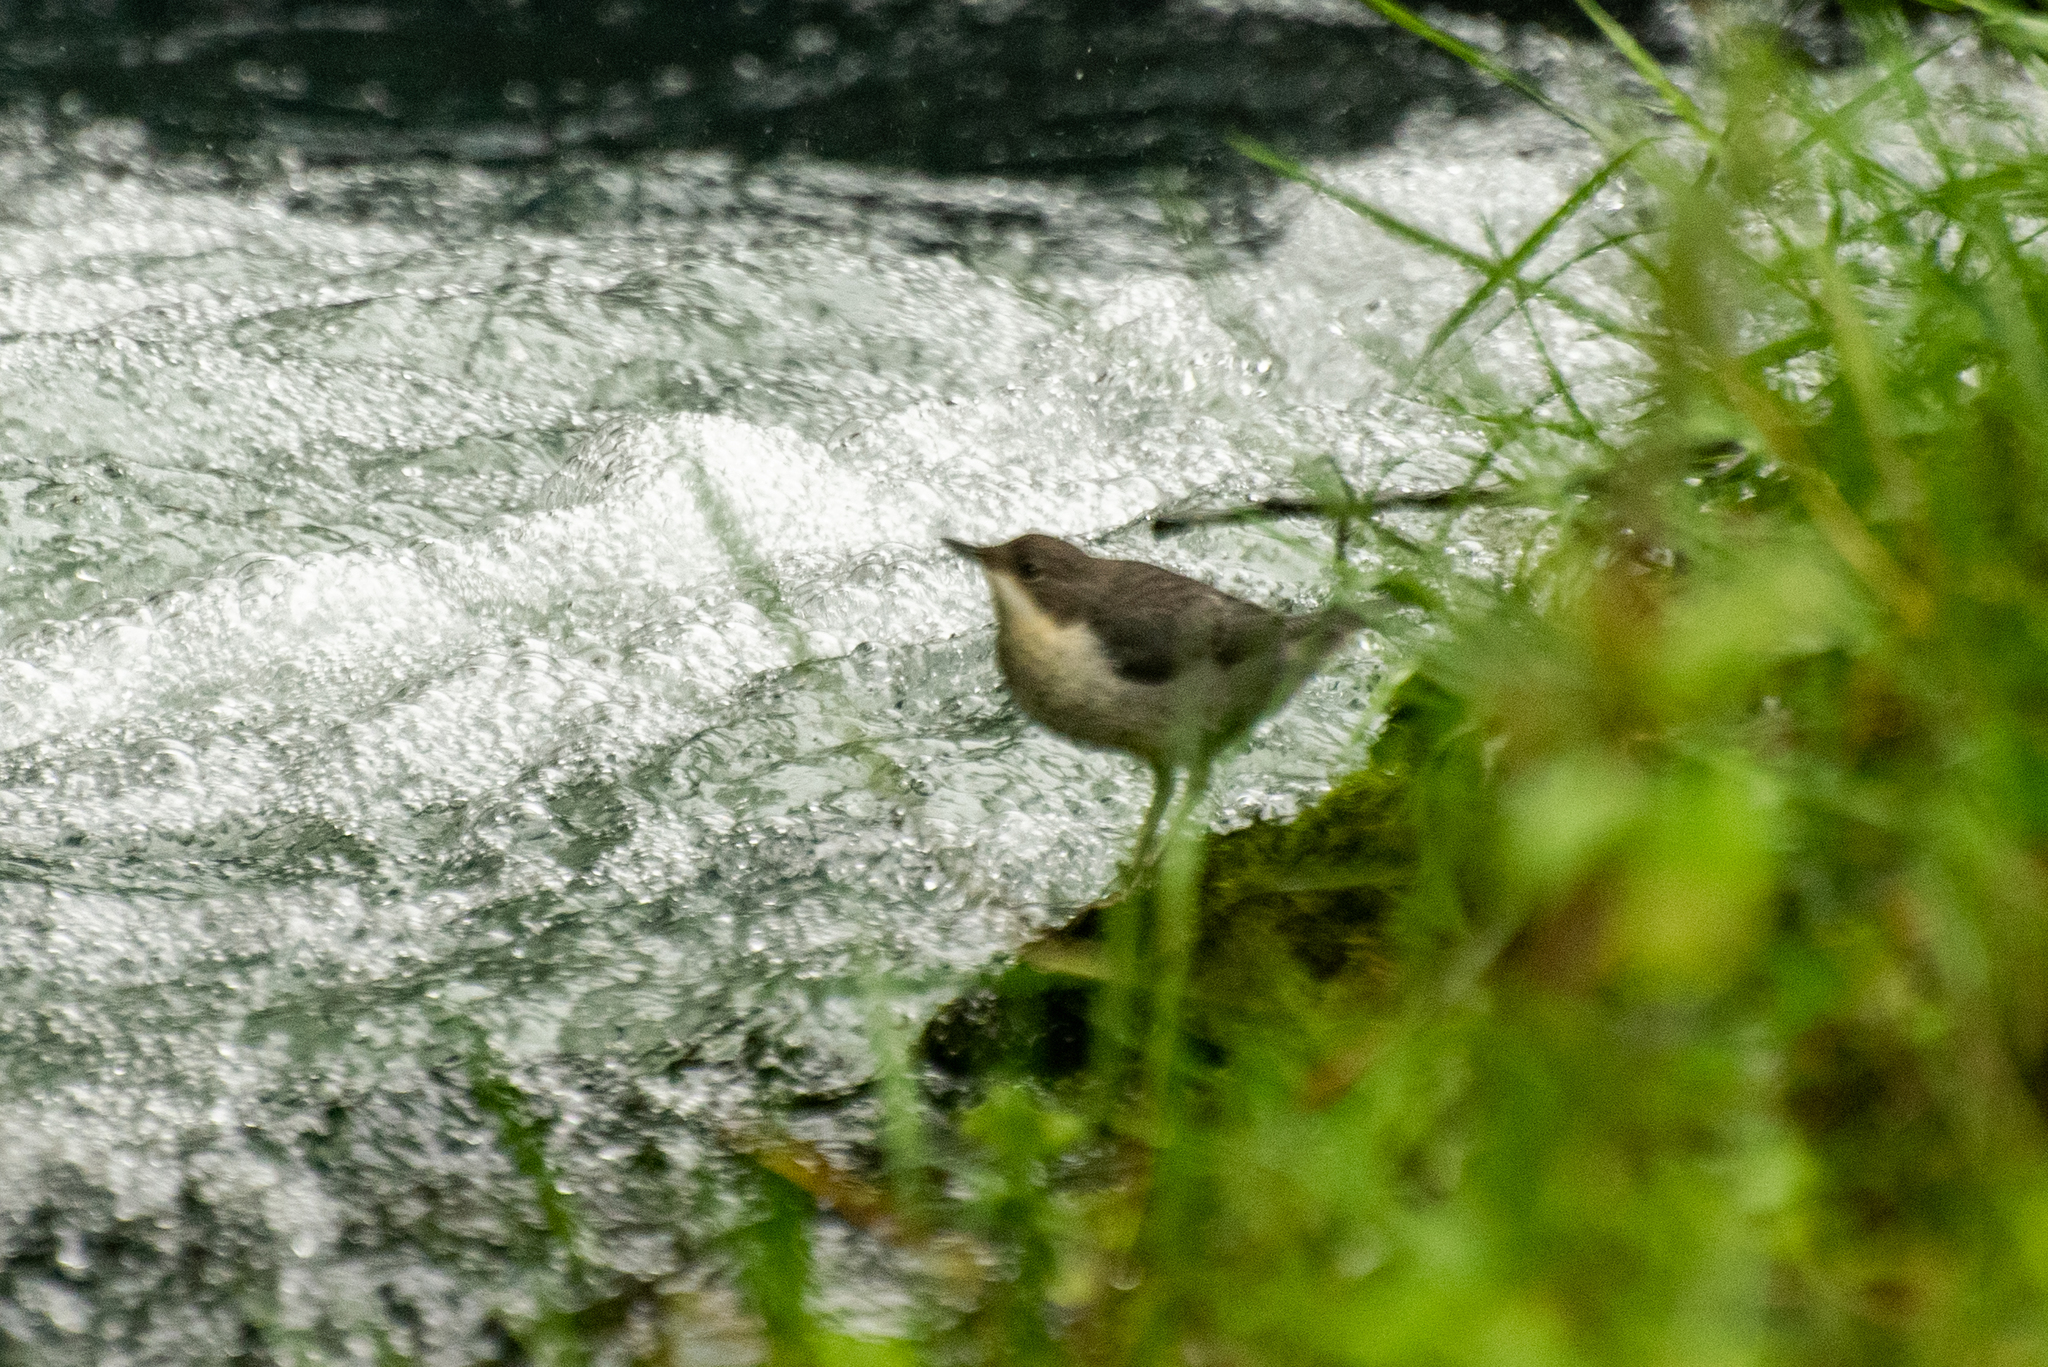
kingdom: Animalia
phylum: Chordata
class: Aves
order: Passeriformes
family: Cinclidae
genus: Cinclus
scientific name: Cinclus cinclus
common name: White-throated dipper
